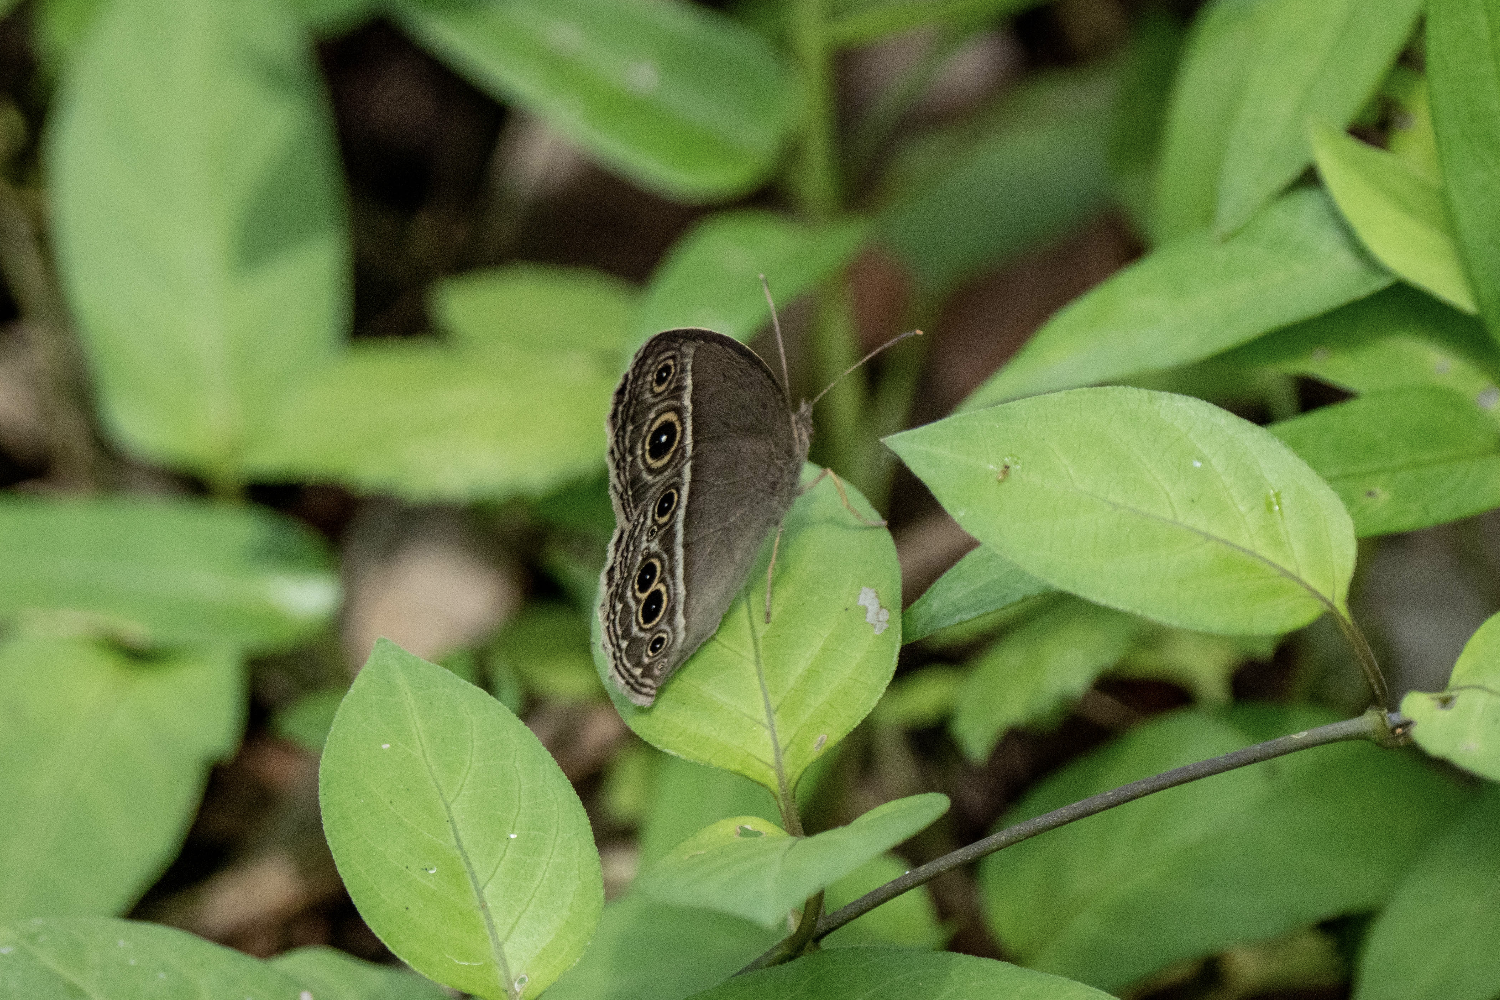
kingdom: Animalia
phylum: Arthropoda
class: Insecta
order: Lepidoptera
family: Nymphalidae
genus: Mycalesis
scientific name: Mycalesis mineus
